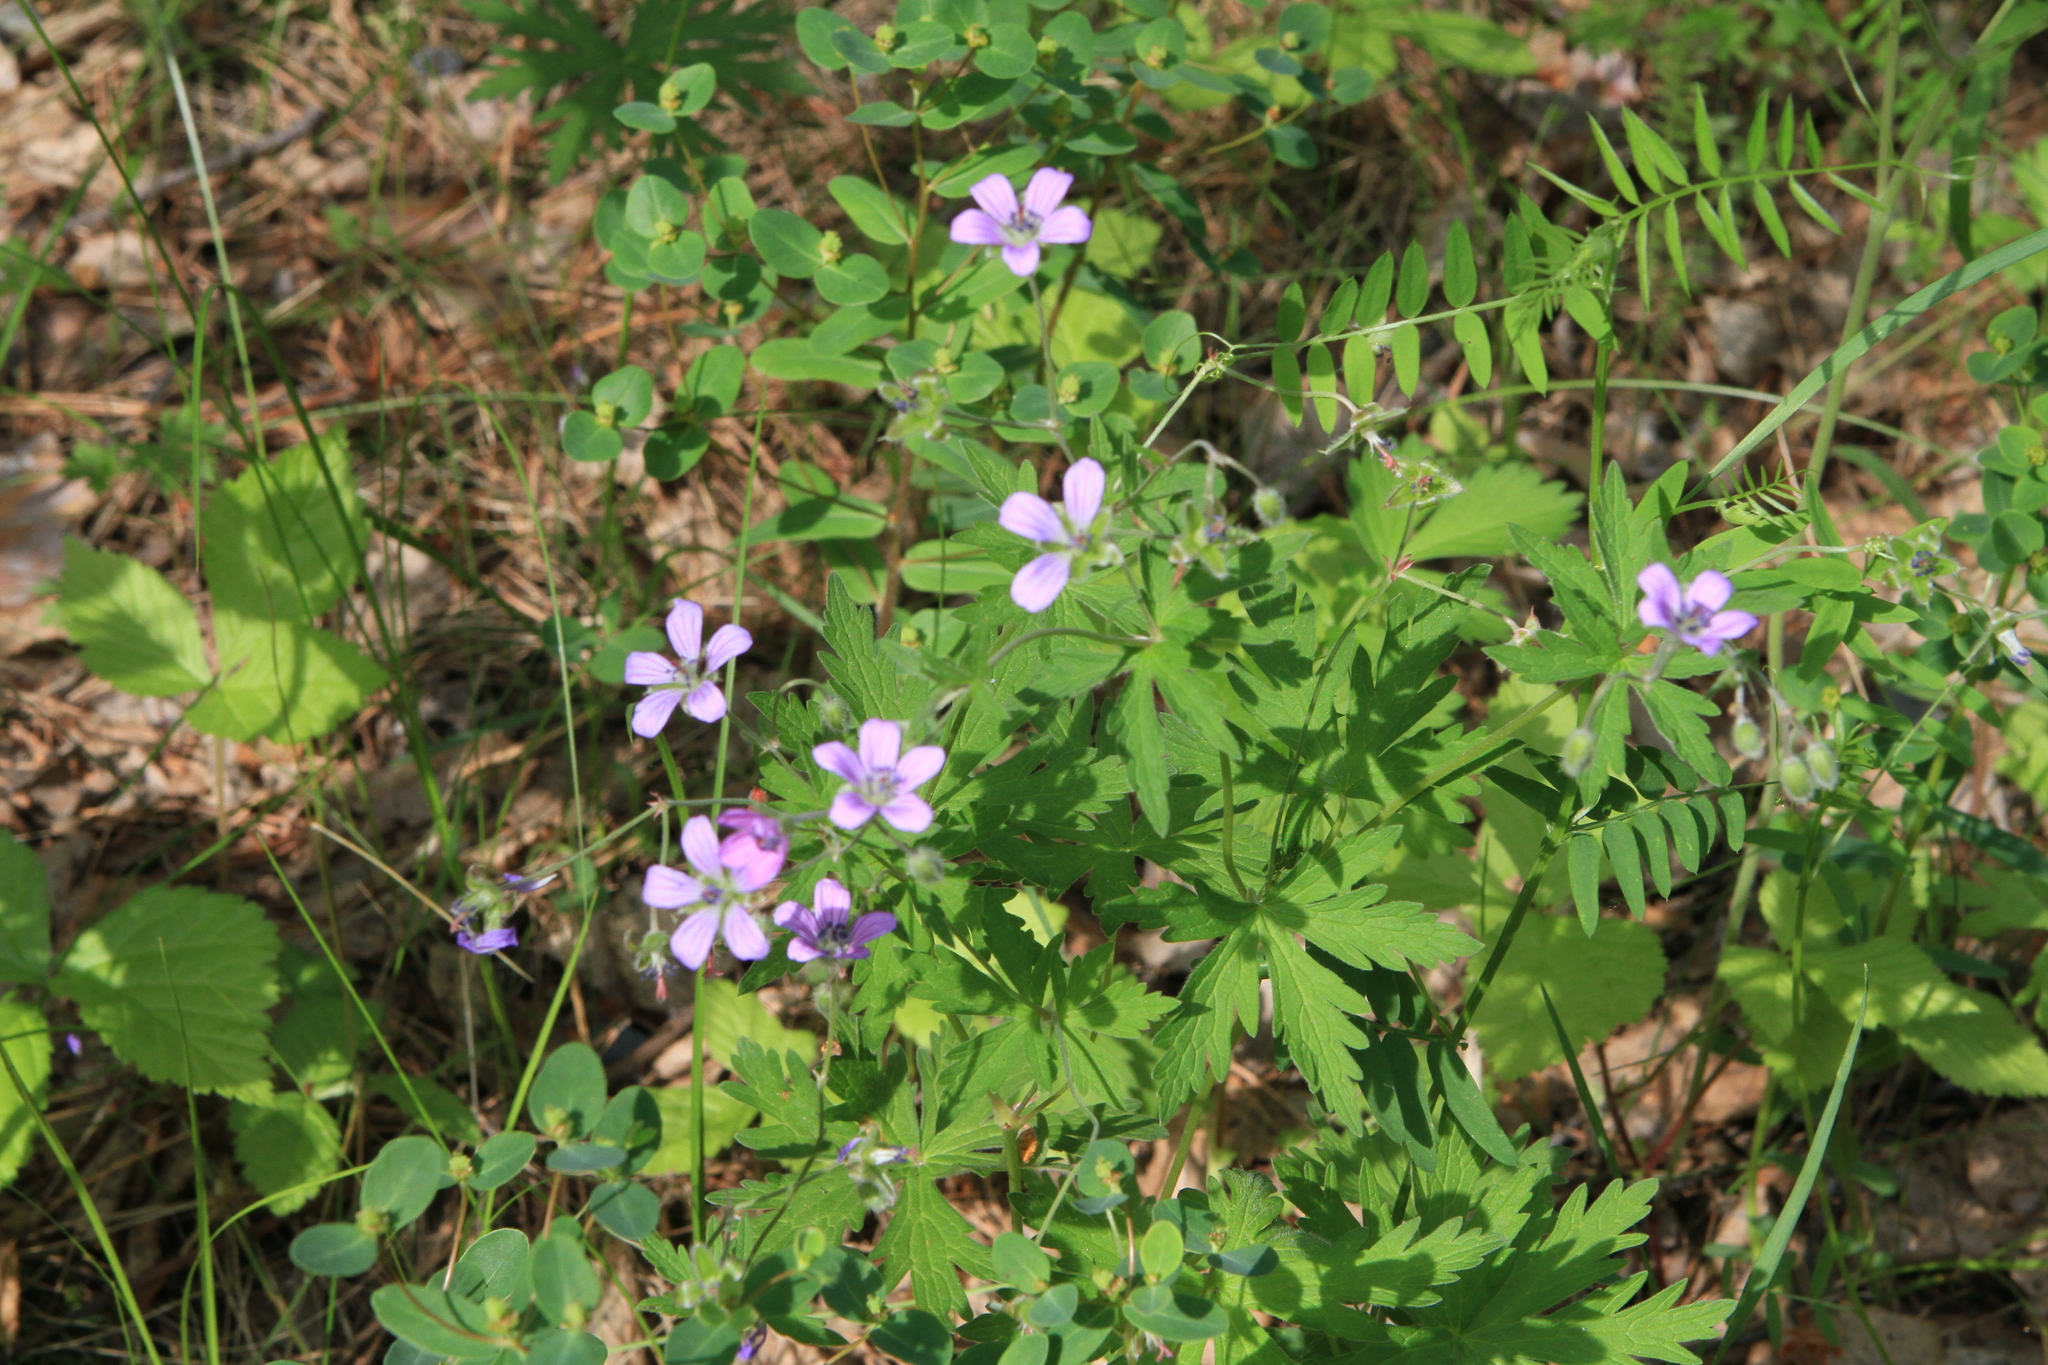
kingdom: Plantae
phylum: Tracheophyta
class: Magnoliopsida
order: Geraniales
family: Geraniaceae
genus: Geranium
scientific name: Geranium pseudosibiricum
